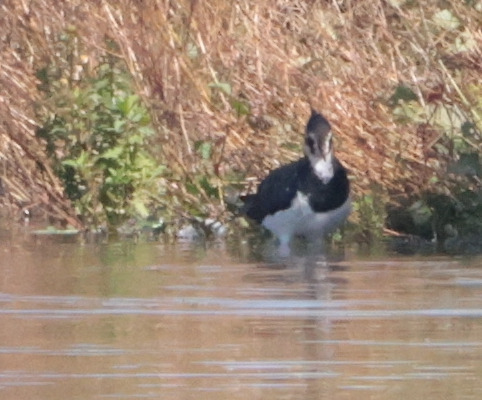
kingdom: Animalia
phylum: Chordata
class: Aves
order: Charadriiformes
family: Charadriidae
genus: Vanellus
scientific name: Vanellus vanellus
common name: Northern lapwing
